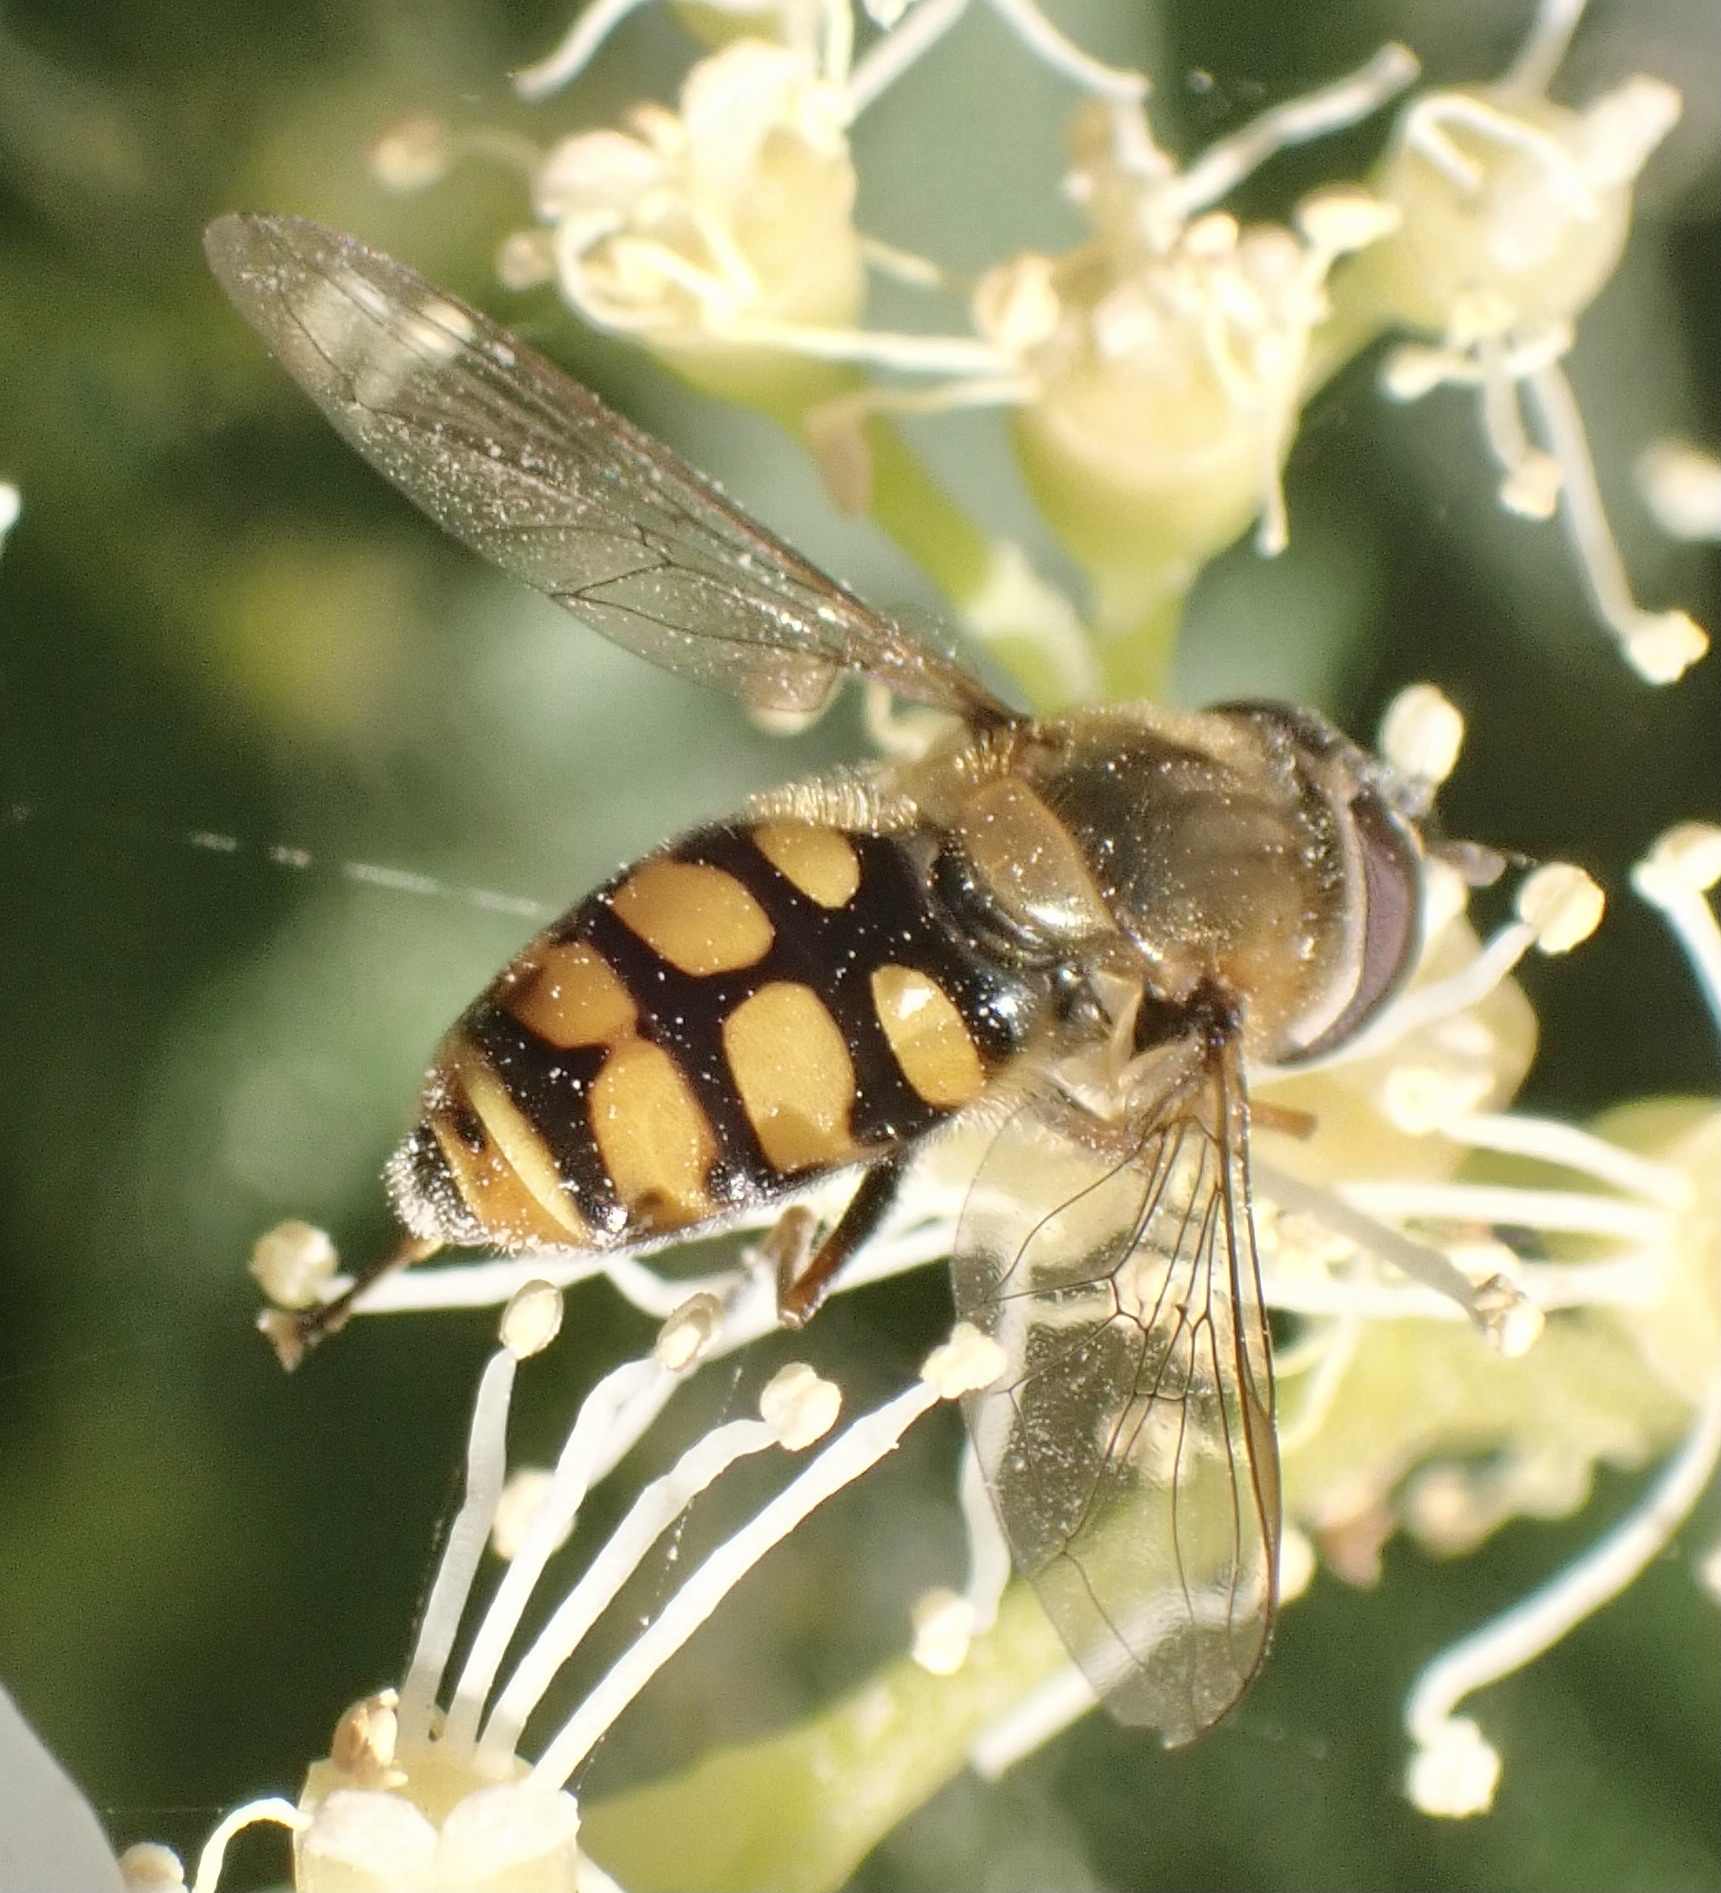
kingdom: Animalia
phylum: Arthropoda
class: Insecta
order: Diptera
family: Syrphidae
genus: Eupeodes
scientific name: Eupeodes corollae
